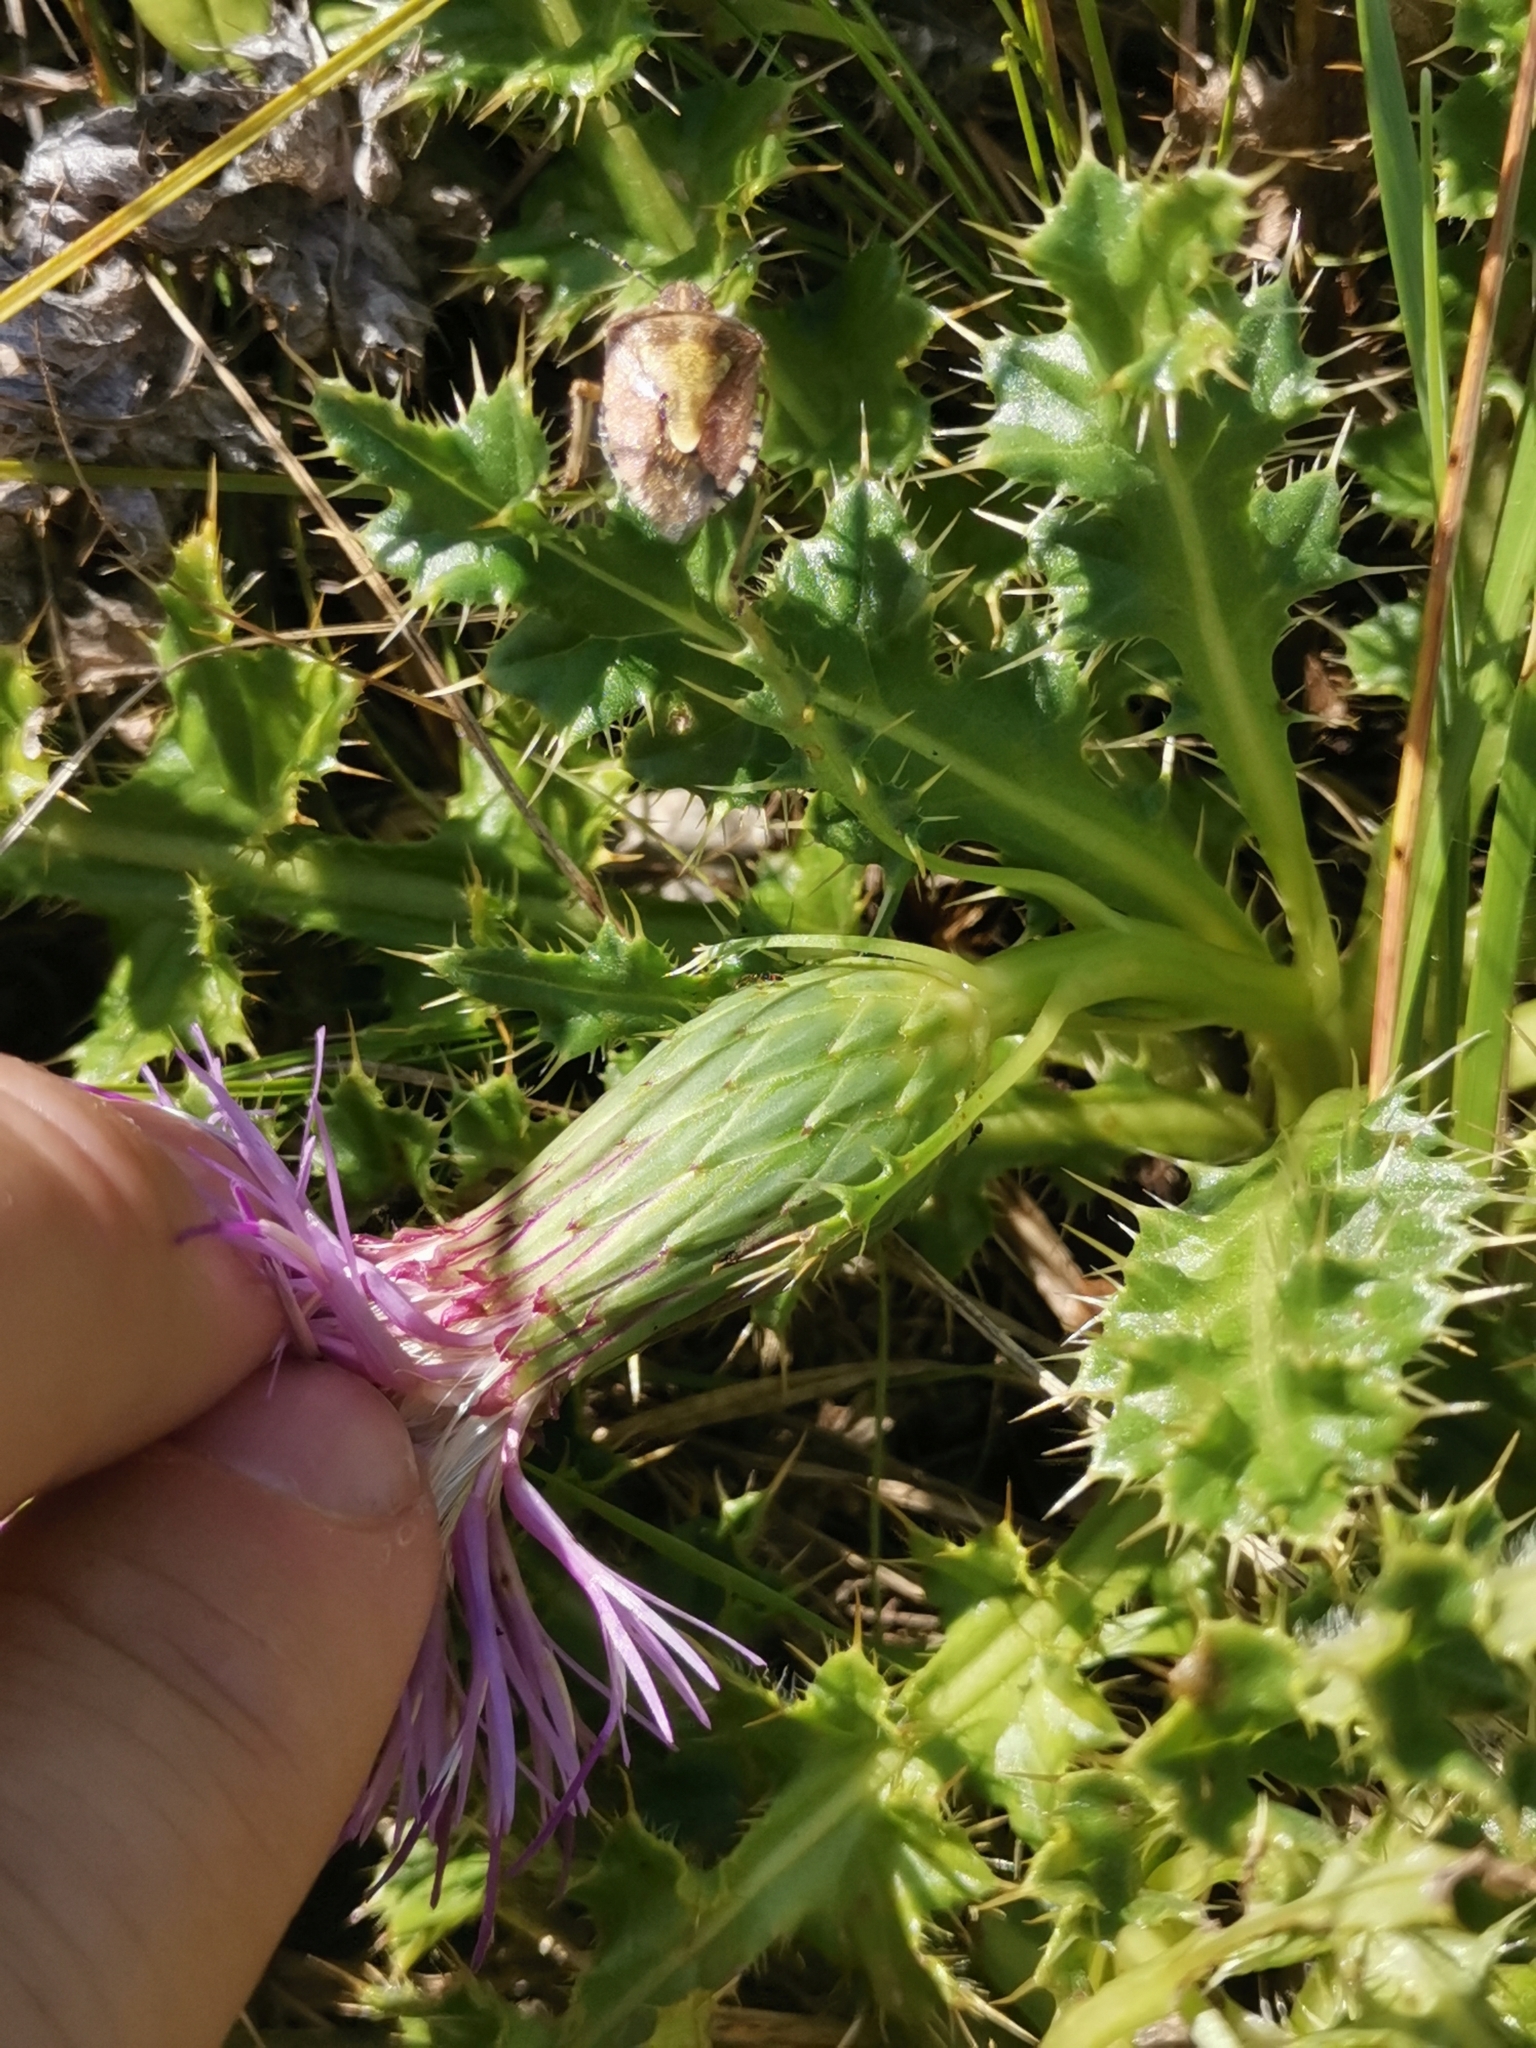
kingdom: Plantae
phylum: Tracheophyta
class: Magnoliopsida
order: Asterales
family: Asteraceae
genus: Cirsium
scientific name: Cirsium acaulon
